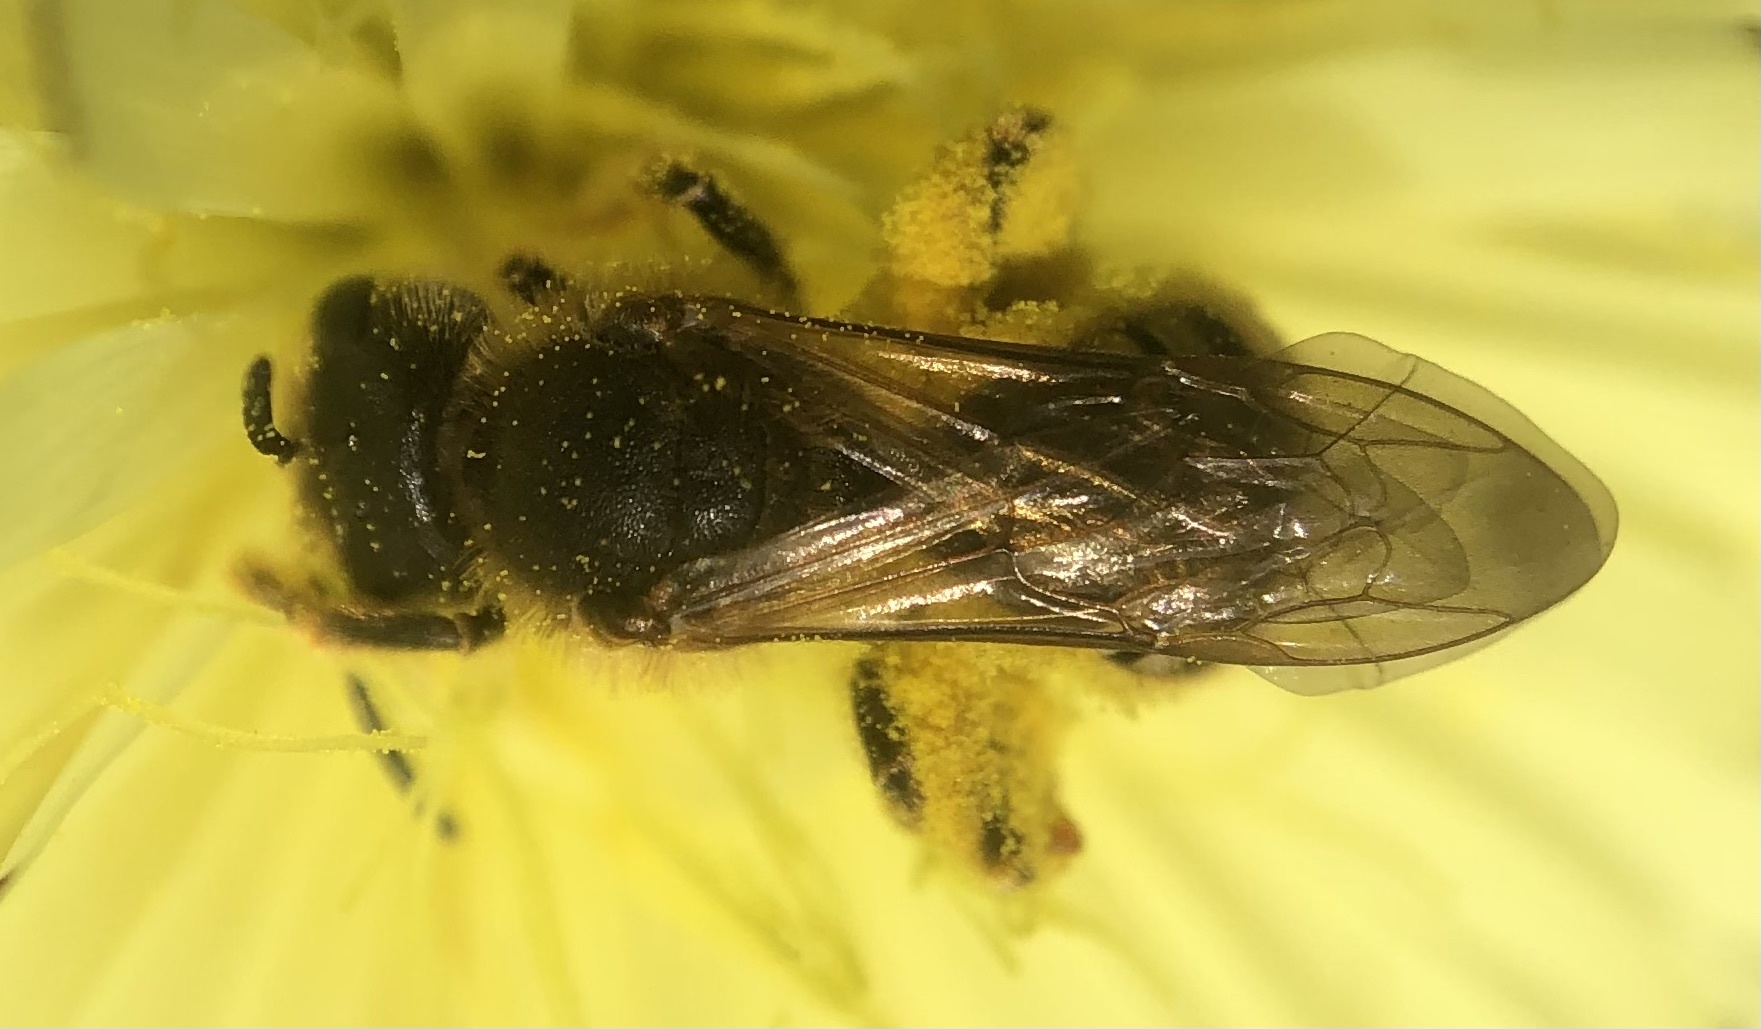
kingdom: Animalia
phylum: Arthropoda
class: Insecta
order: Hymenoptera
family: Halictidae
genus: Halictus
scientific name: Halictus scabiosae
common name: Great banded furrow bee
